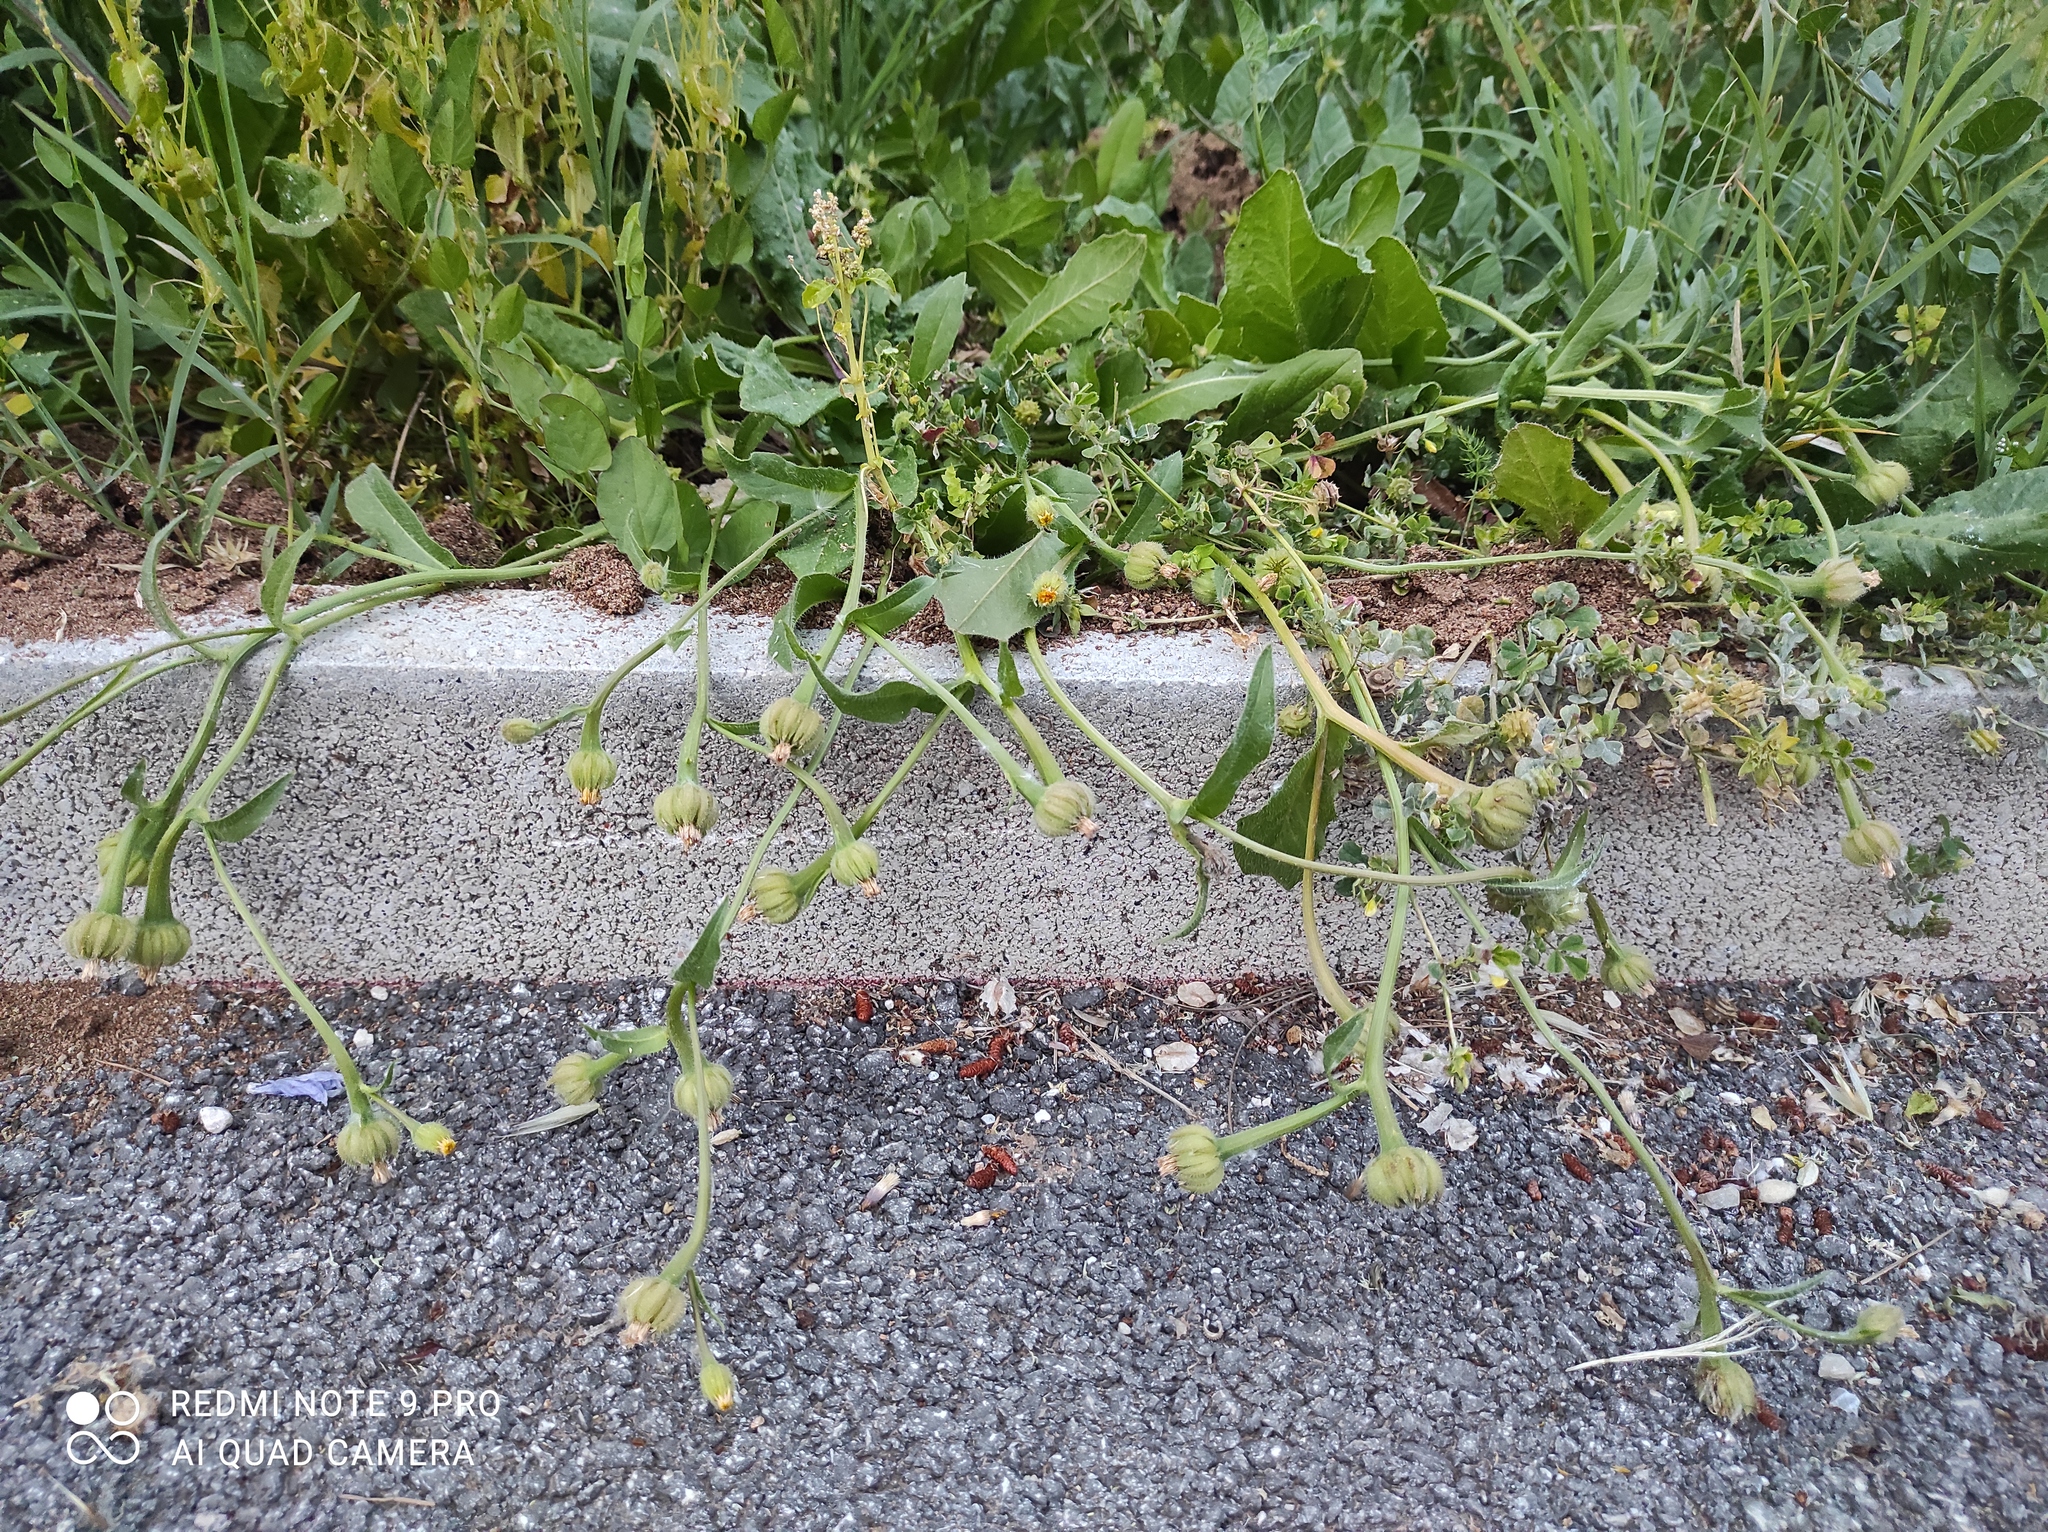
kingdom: Plantae
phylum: Tracheophyta
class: Magnoliopsida
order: Asterales
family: Asteraceae
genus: Hedypnois
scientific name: Hedypnois rhagadioloides
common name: Cretan weed
